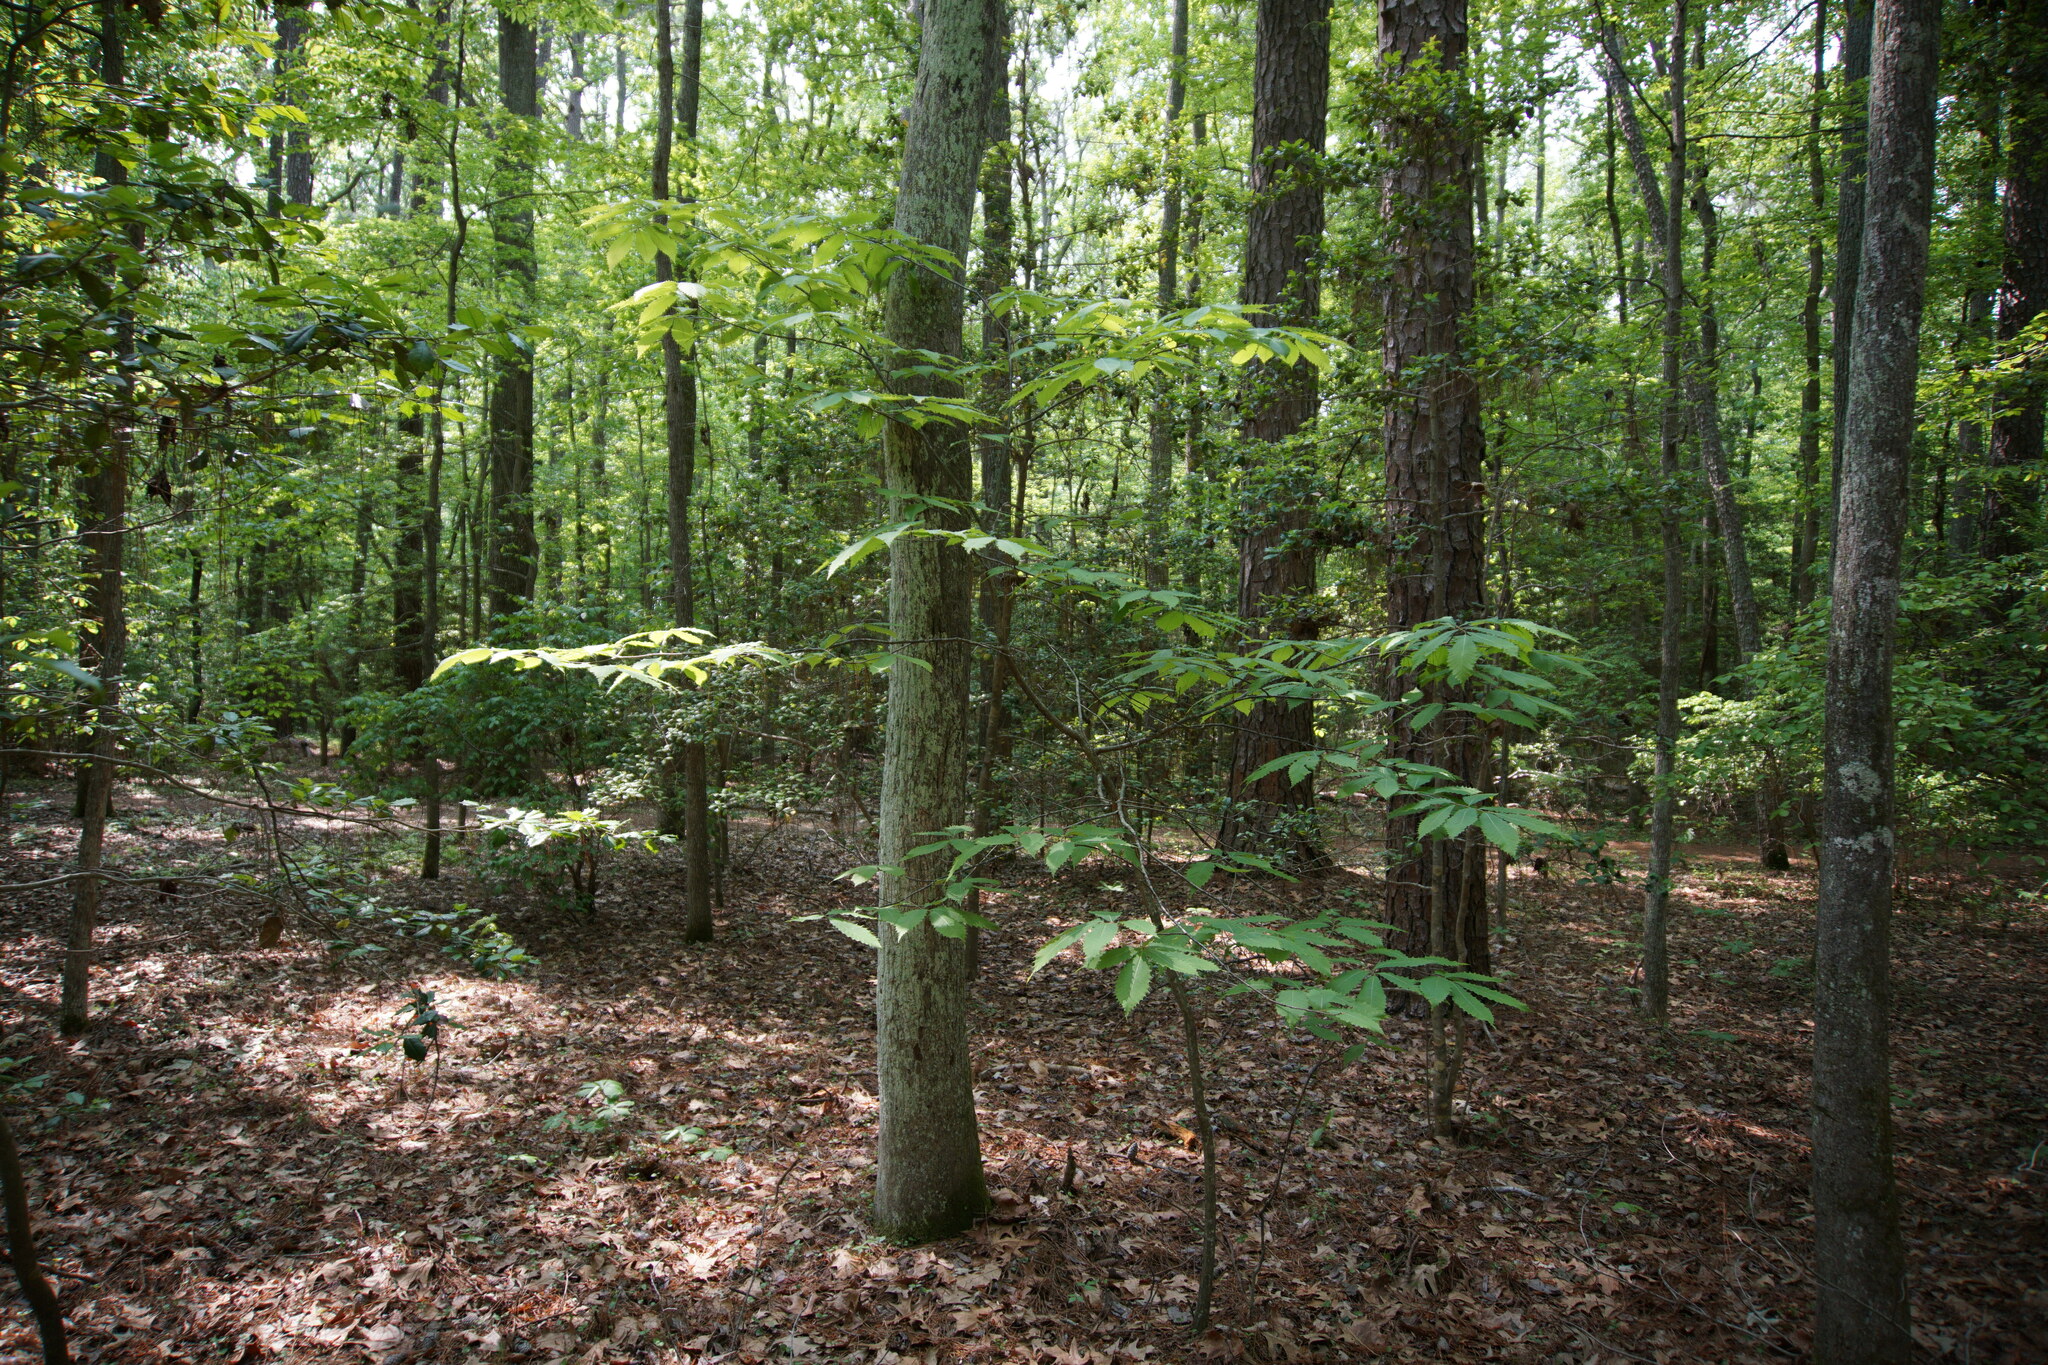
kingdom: Plantae
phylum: Tracheophyta
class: Magnoliopsida
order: Fagales
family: Fagaceae
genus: Castanea
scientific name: Castanea dentata
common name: American chestnut
